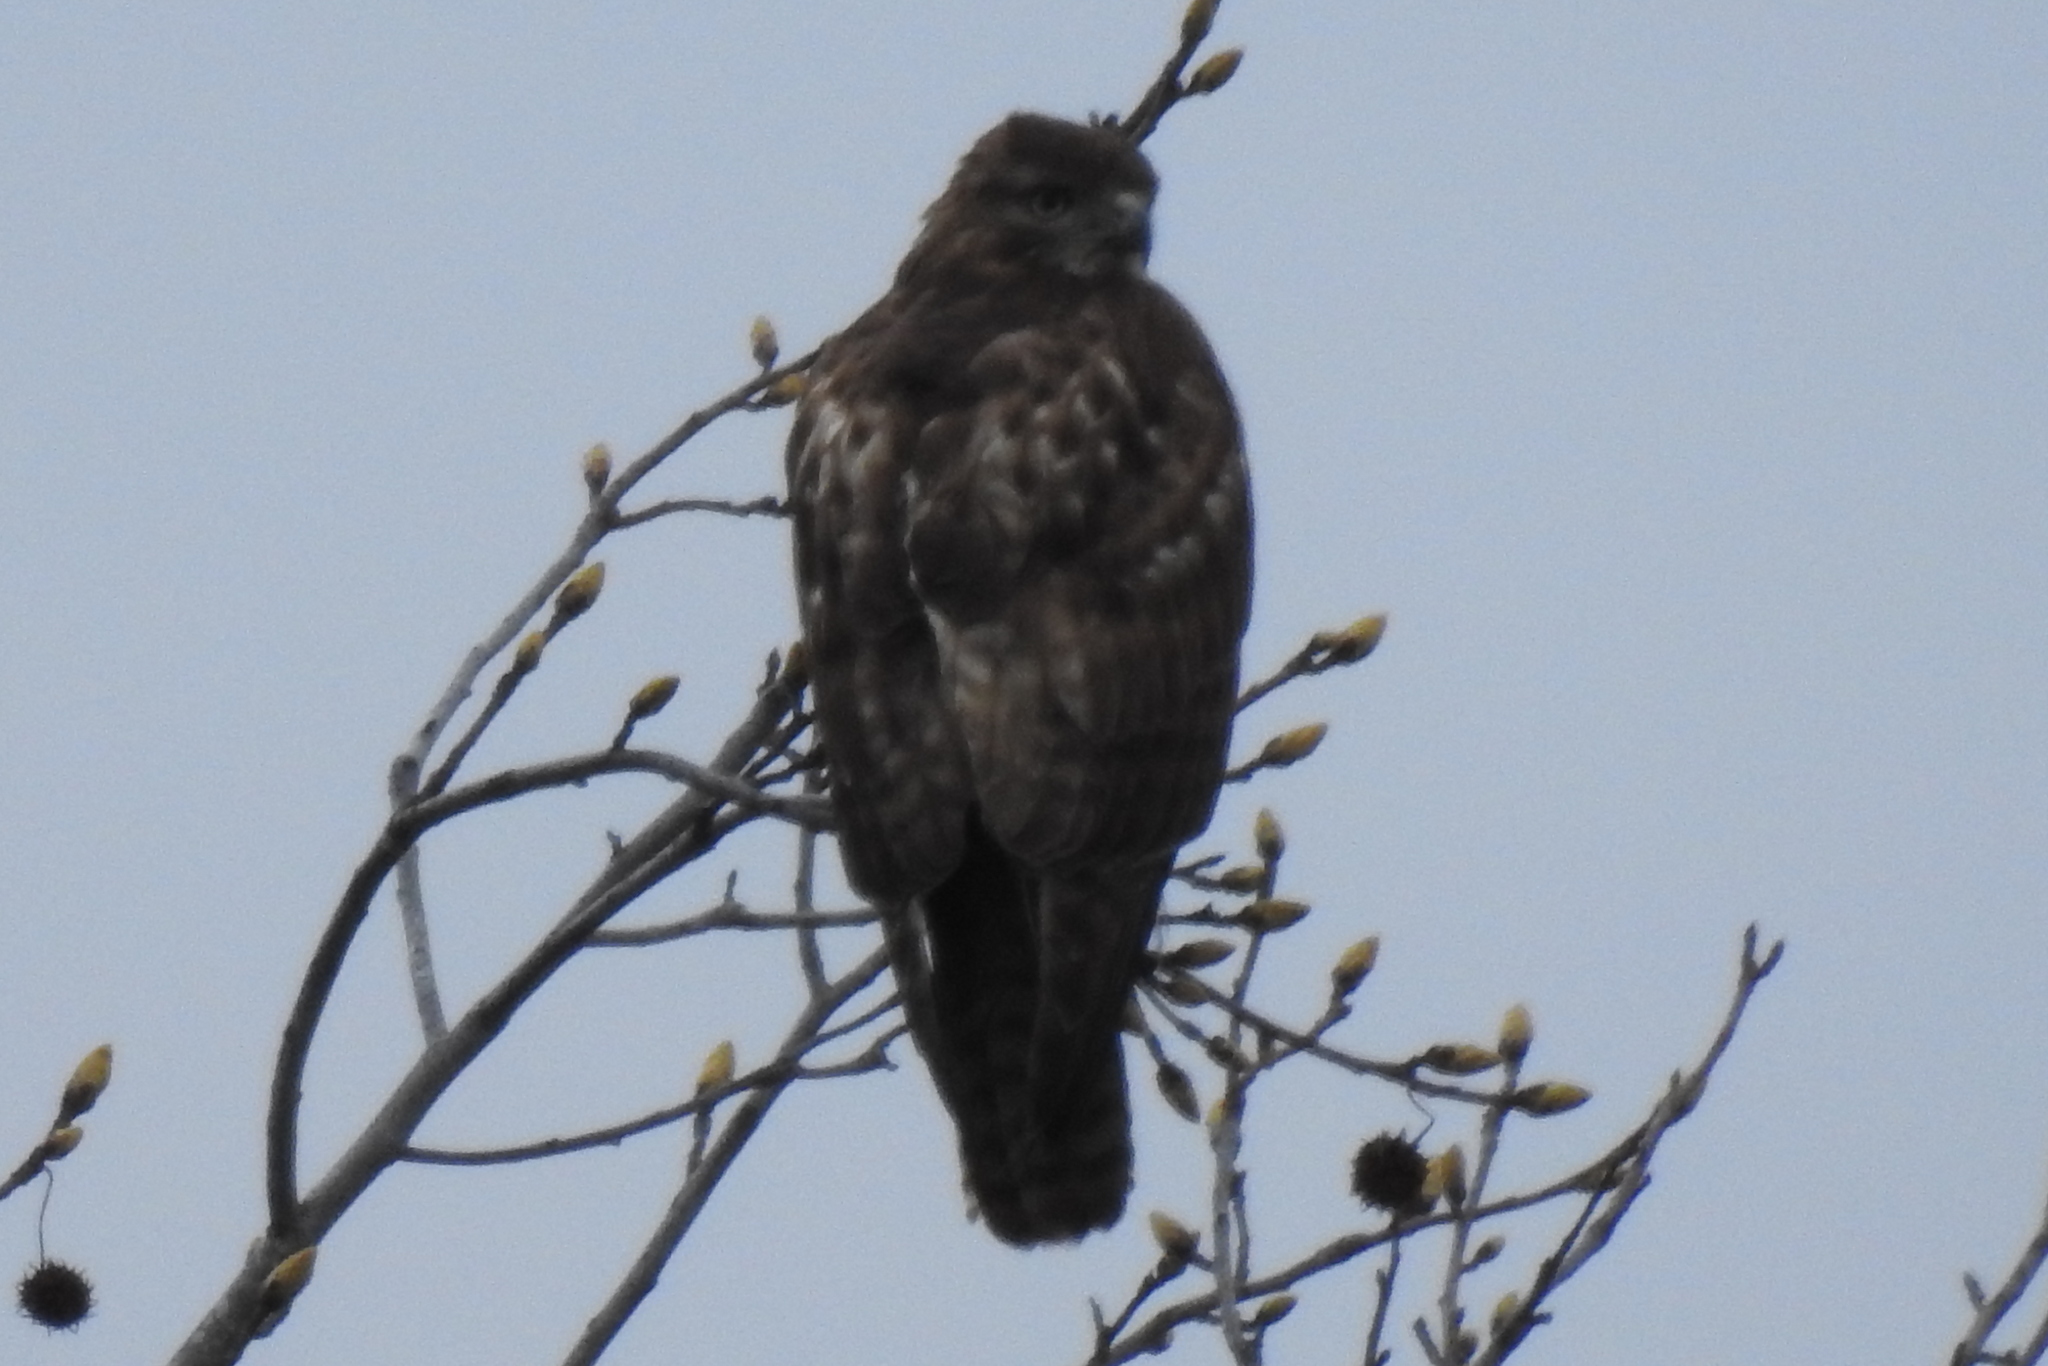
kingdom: Animalia
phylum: Chordata
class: Aves
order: Accipitriformes
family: Accipitridae
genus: Buteo
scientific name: Buteo jamaicensis
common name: Red-tailed hawk
